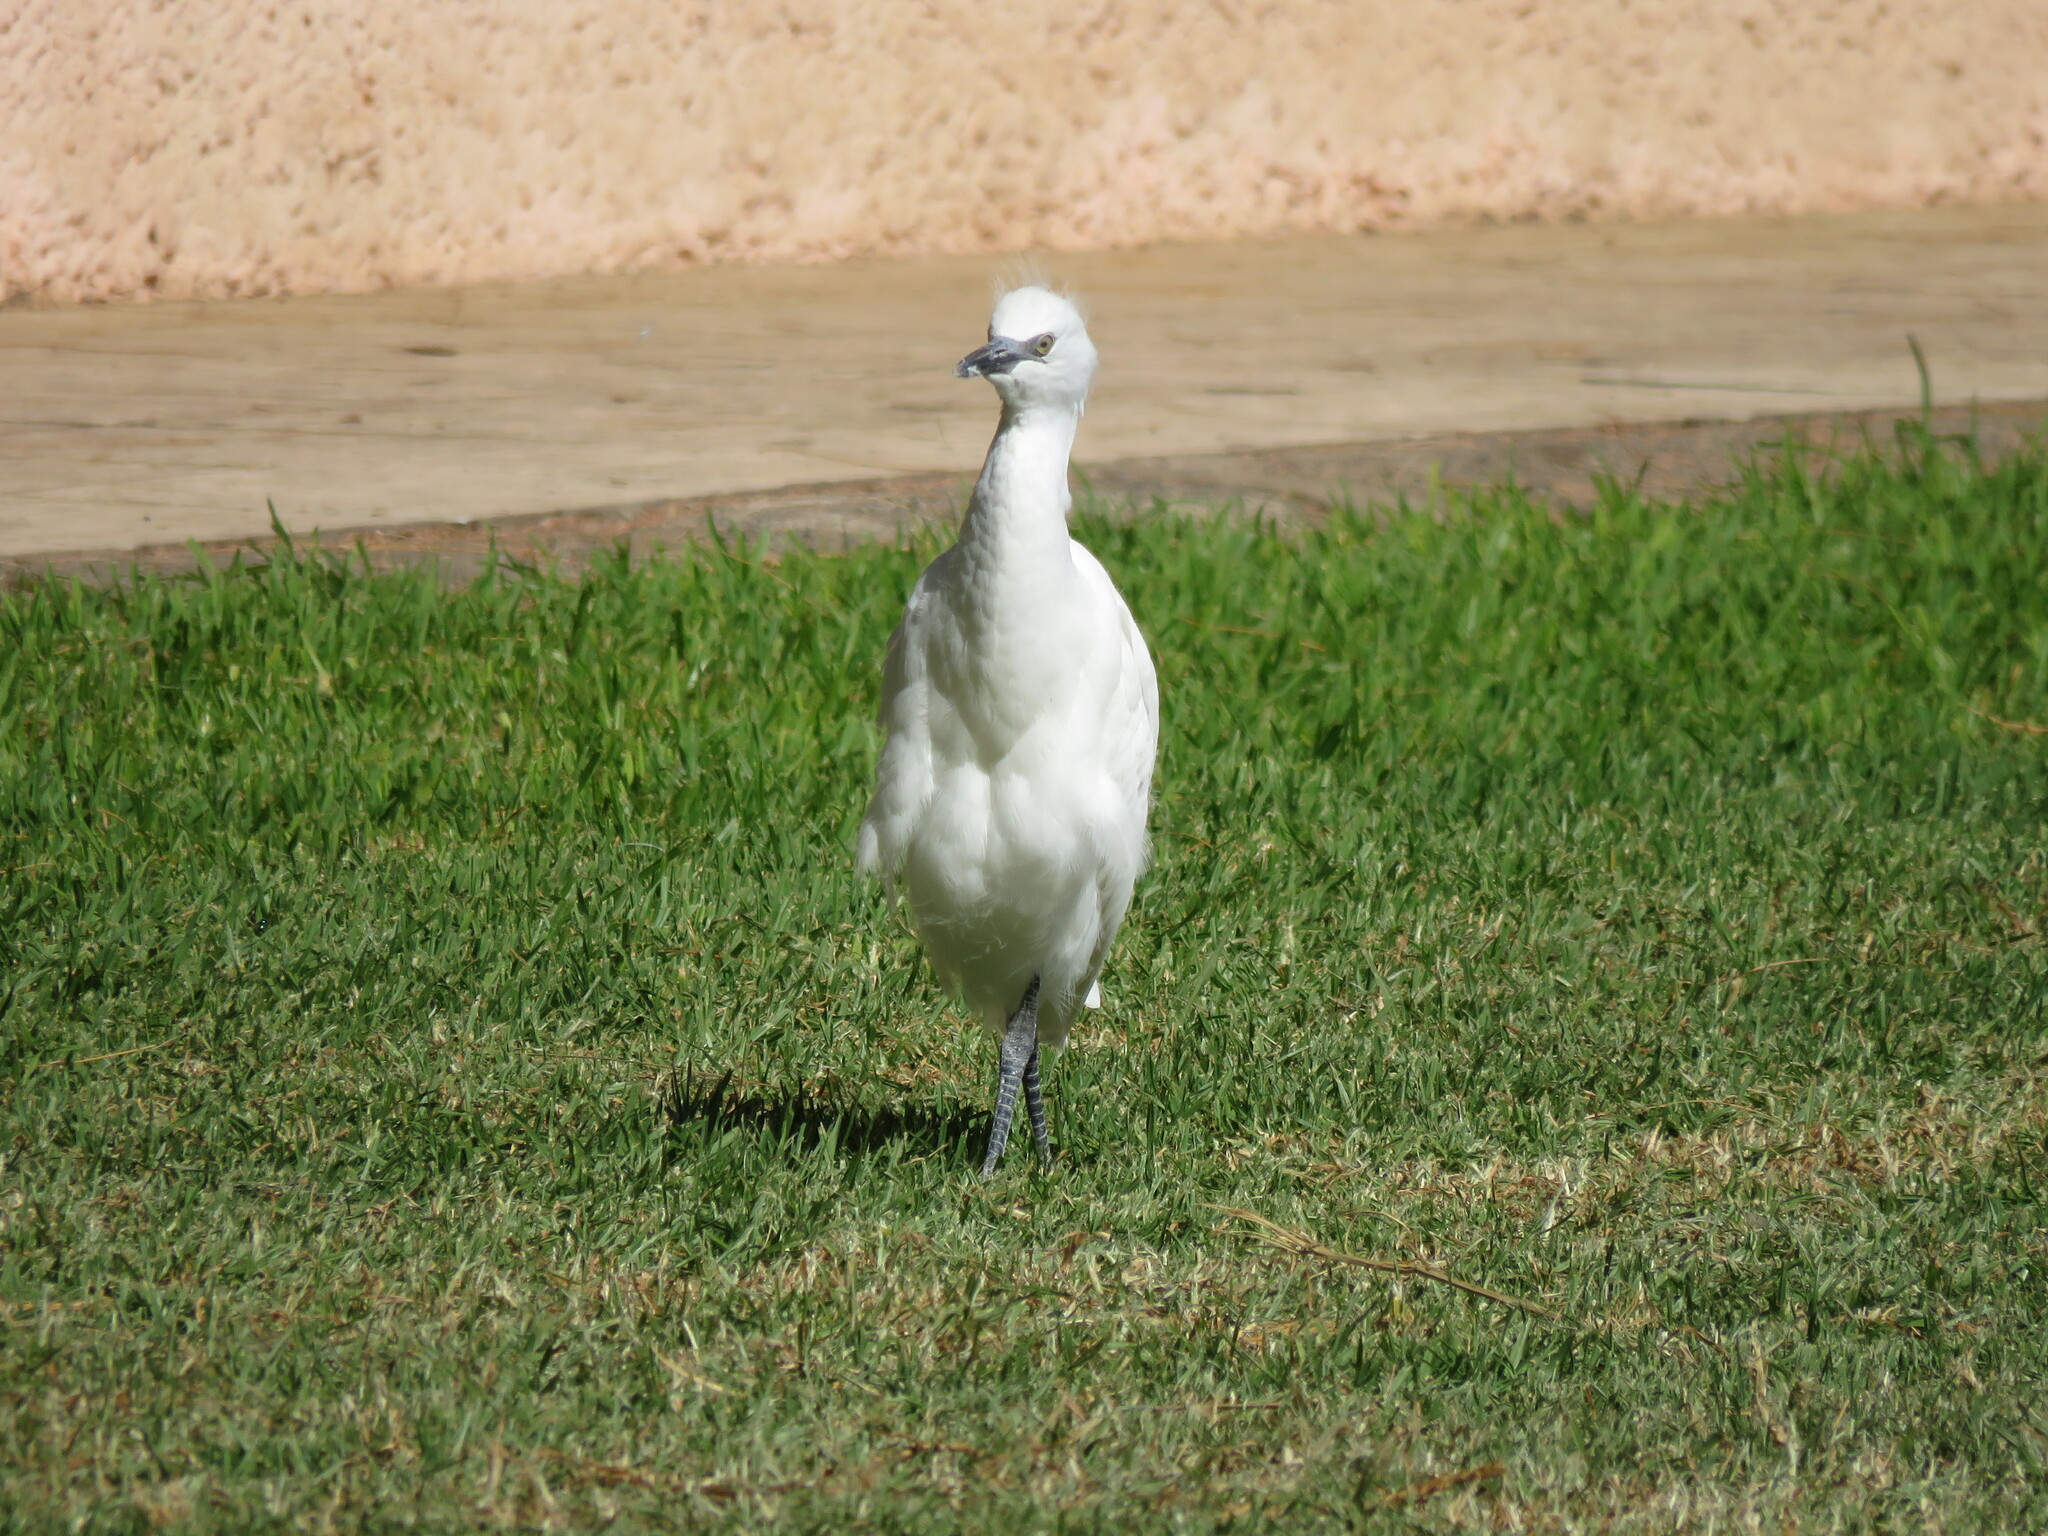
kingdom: Animalia
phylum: Chordata
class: Aves
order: Pelecaniformes
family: Ardeidae
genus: Bubulcus
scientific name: Bubulcus ibis
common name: Cattle egret
